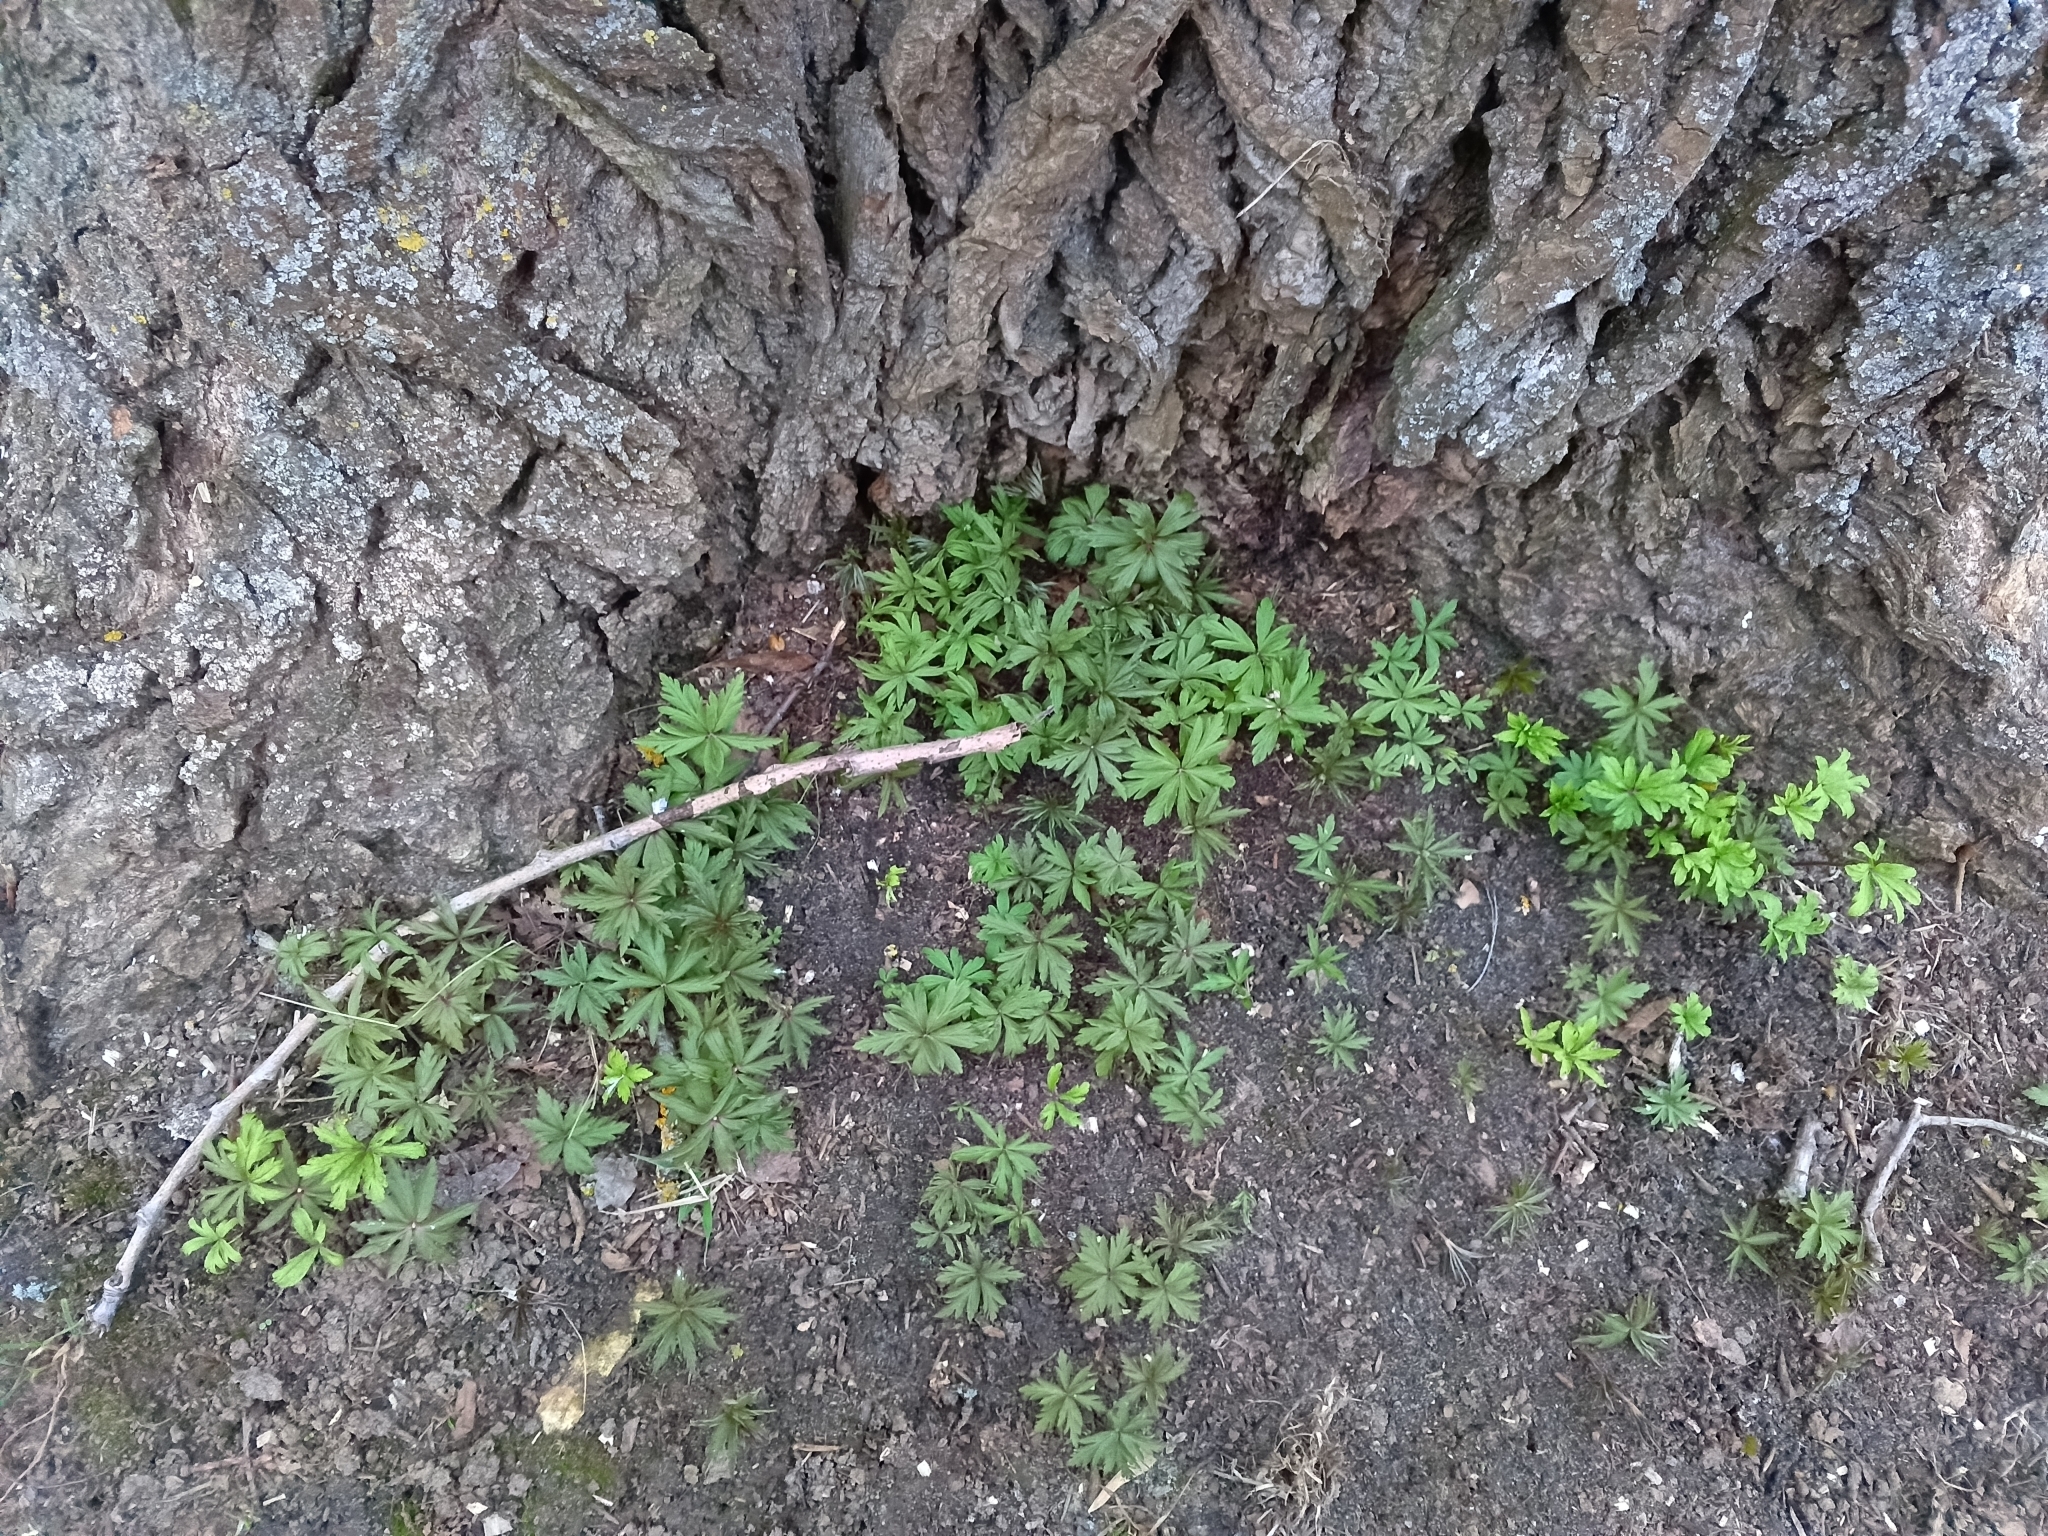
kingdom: Plantae
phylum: Tracheophyta
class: Magnoliopsida
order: Ranunculales
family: Ranunculaceae
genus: Anemone
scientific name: Anemone ranunculoides
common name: Yellow anemone
